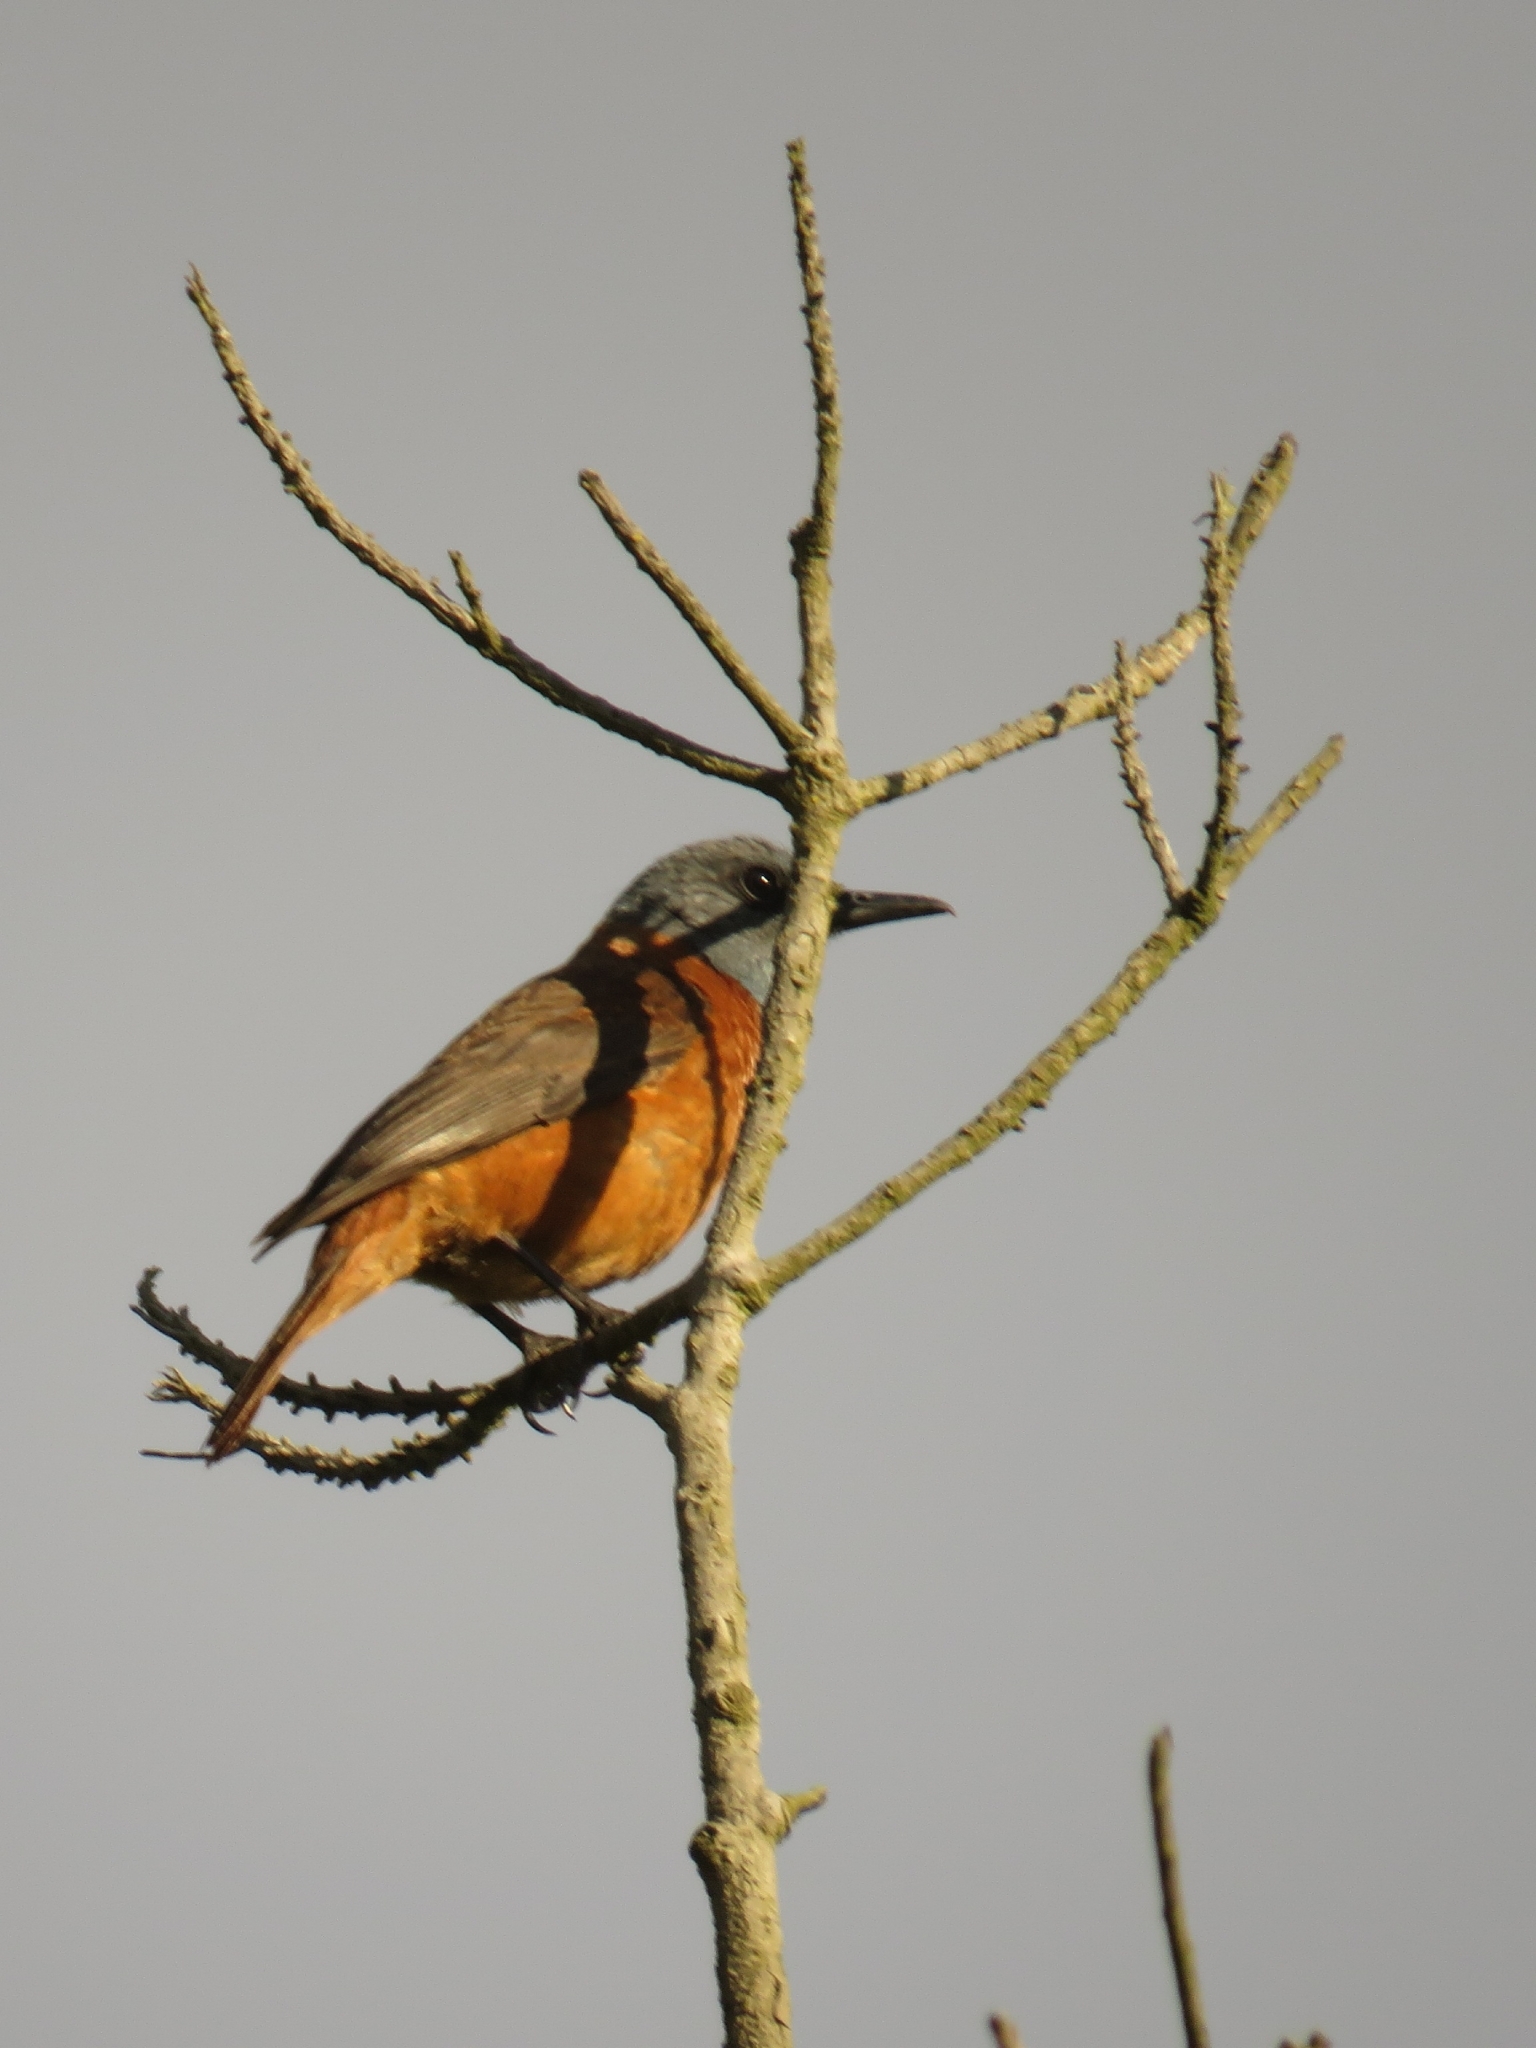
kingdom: Animalia
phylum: Chordata
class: Aves
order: Passeriformes
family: Muscicapidae
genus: Monticola
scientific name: Monticola rupestris
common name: Cape rock thrush
